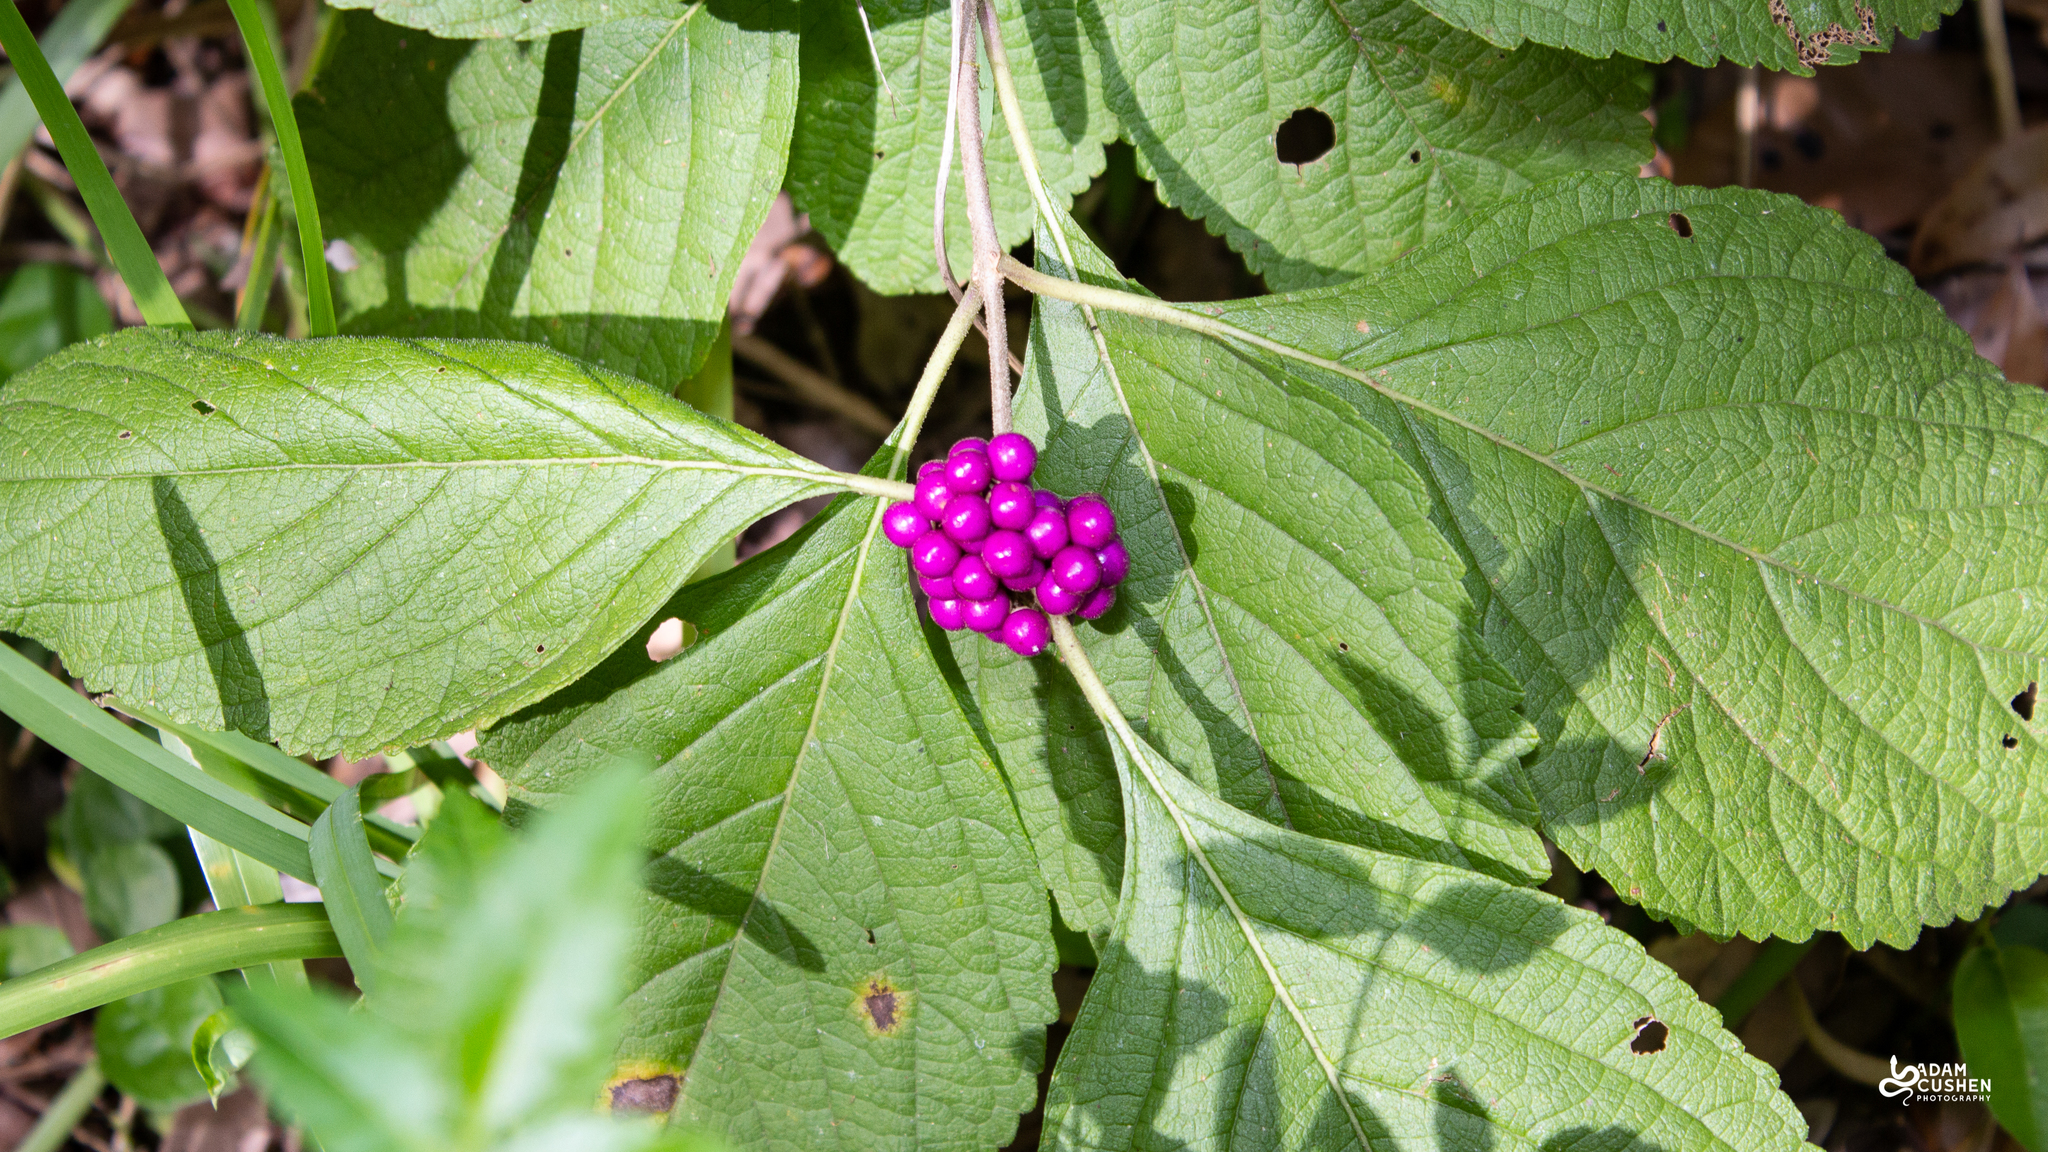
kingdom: Plantae
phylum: Tracheophyta
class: Magnoliopsida
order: Lamiales
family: Lamiaceae
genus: Callicarpa
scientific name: Callicarpa americana
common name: American beautyberry
